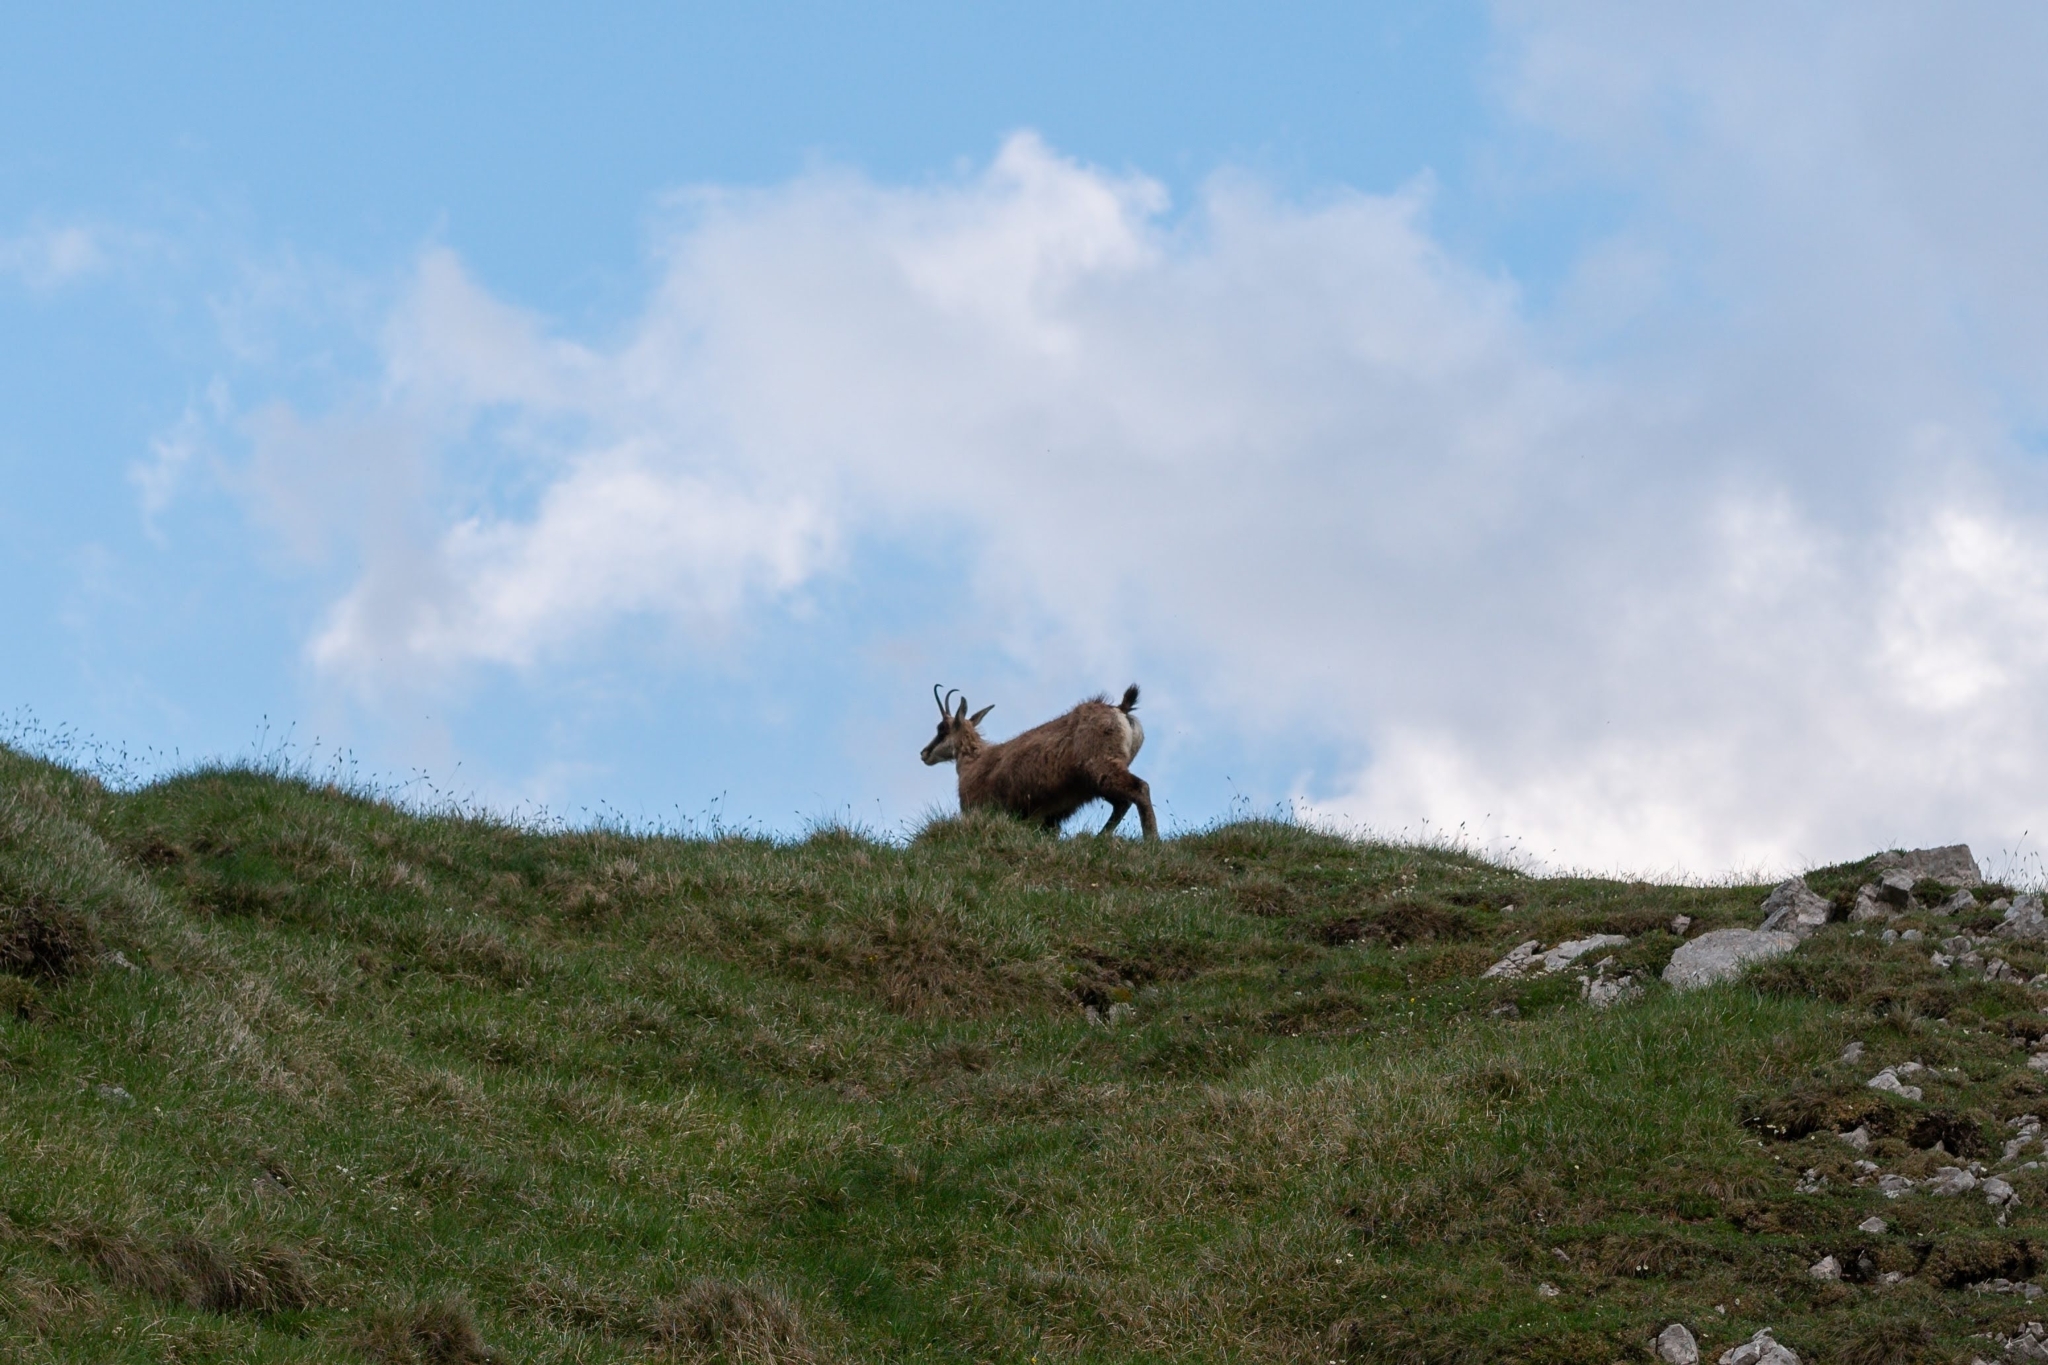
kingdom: Animalia
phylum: Chordata
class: Mammalia
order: Artiodactyla
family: Bovidae
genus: Rupicapra
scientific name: Rupicapra rupicapra
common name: Chamois
